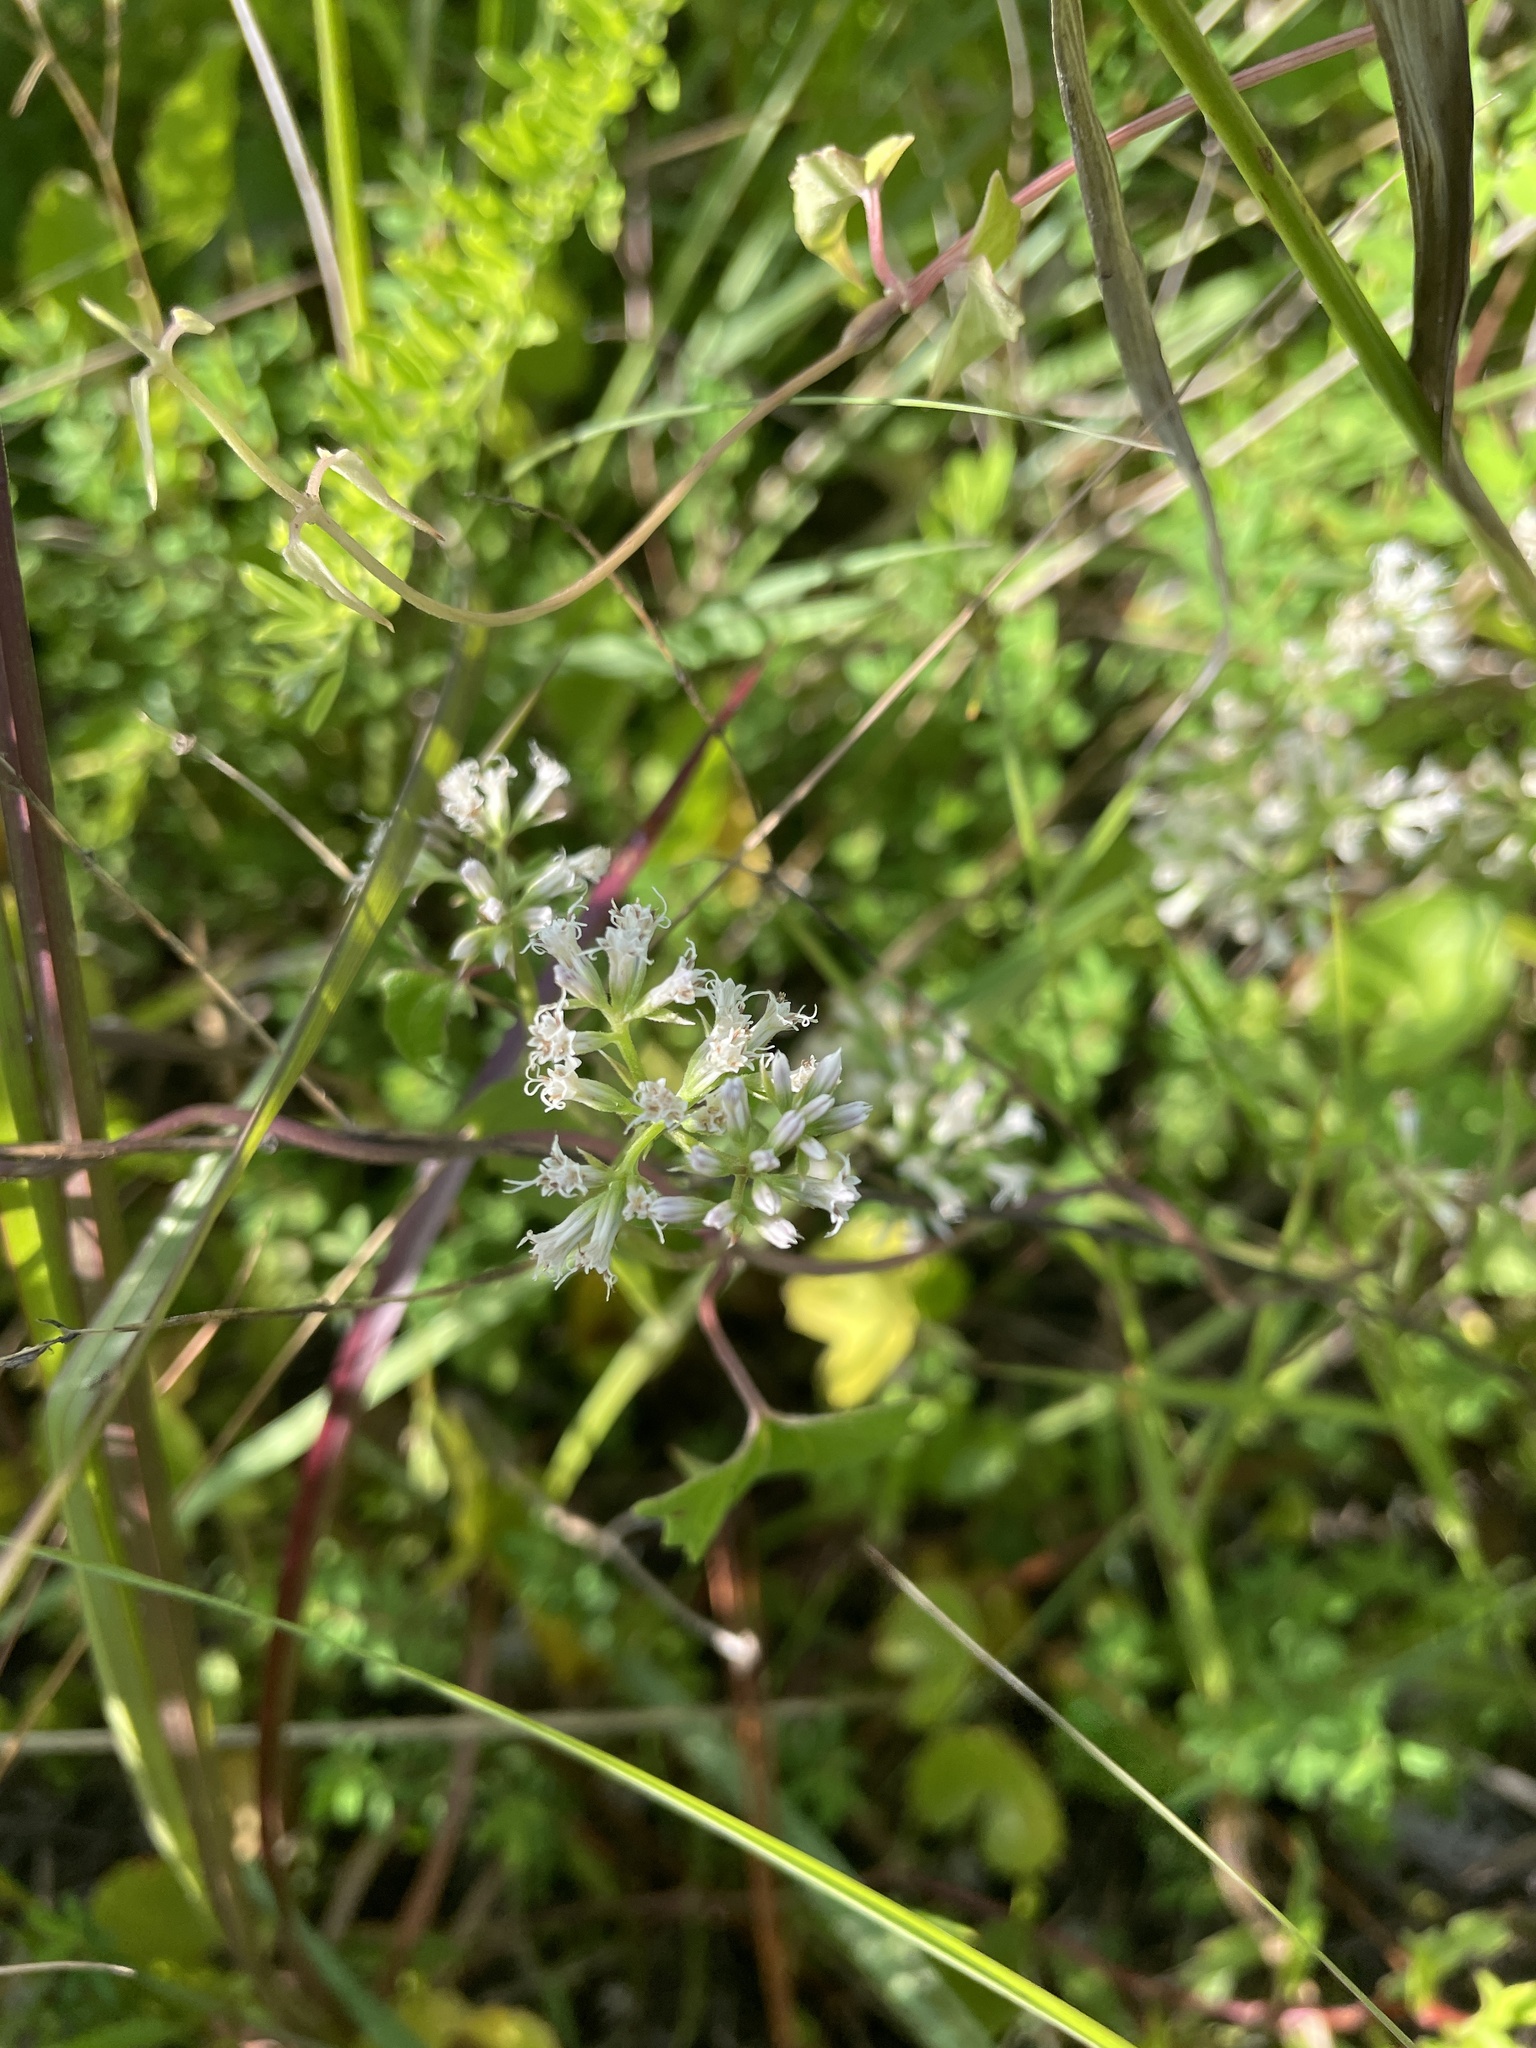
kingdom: Plantae
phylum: Tracheophyta
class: Magnoliopsida
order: Asterales
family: Asteraceae
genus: Mikania
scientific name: Mikania scandens
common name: Climbing hempvine
